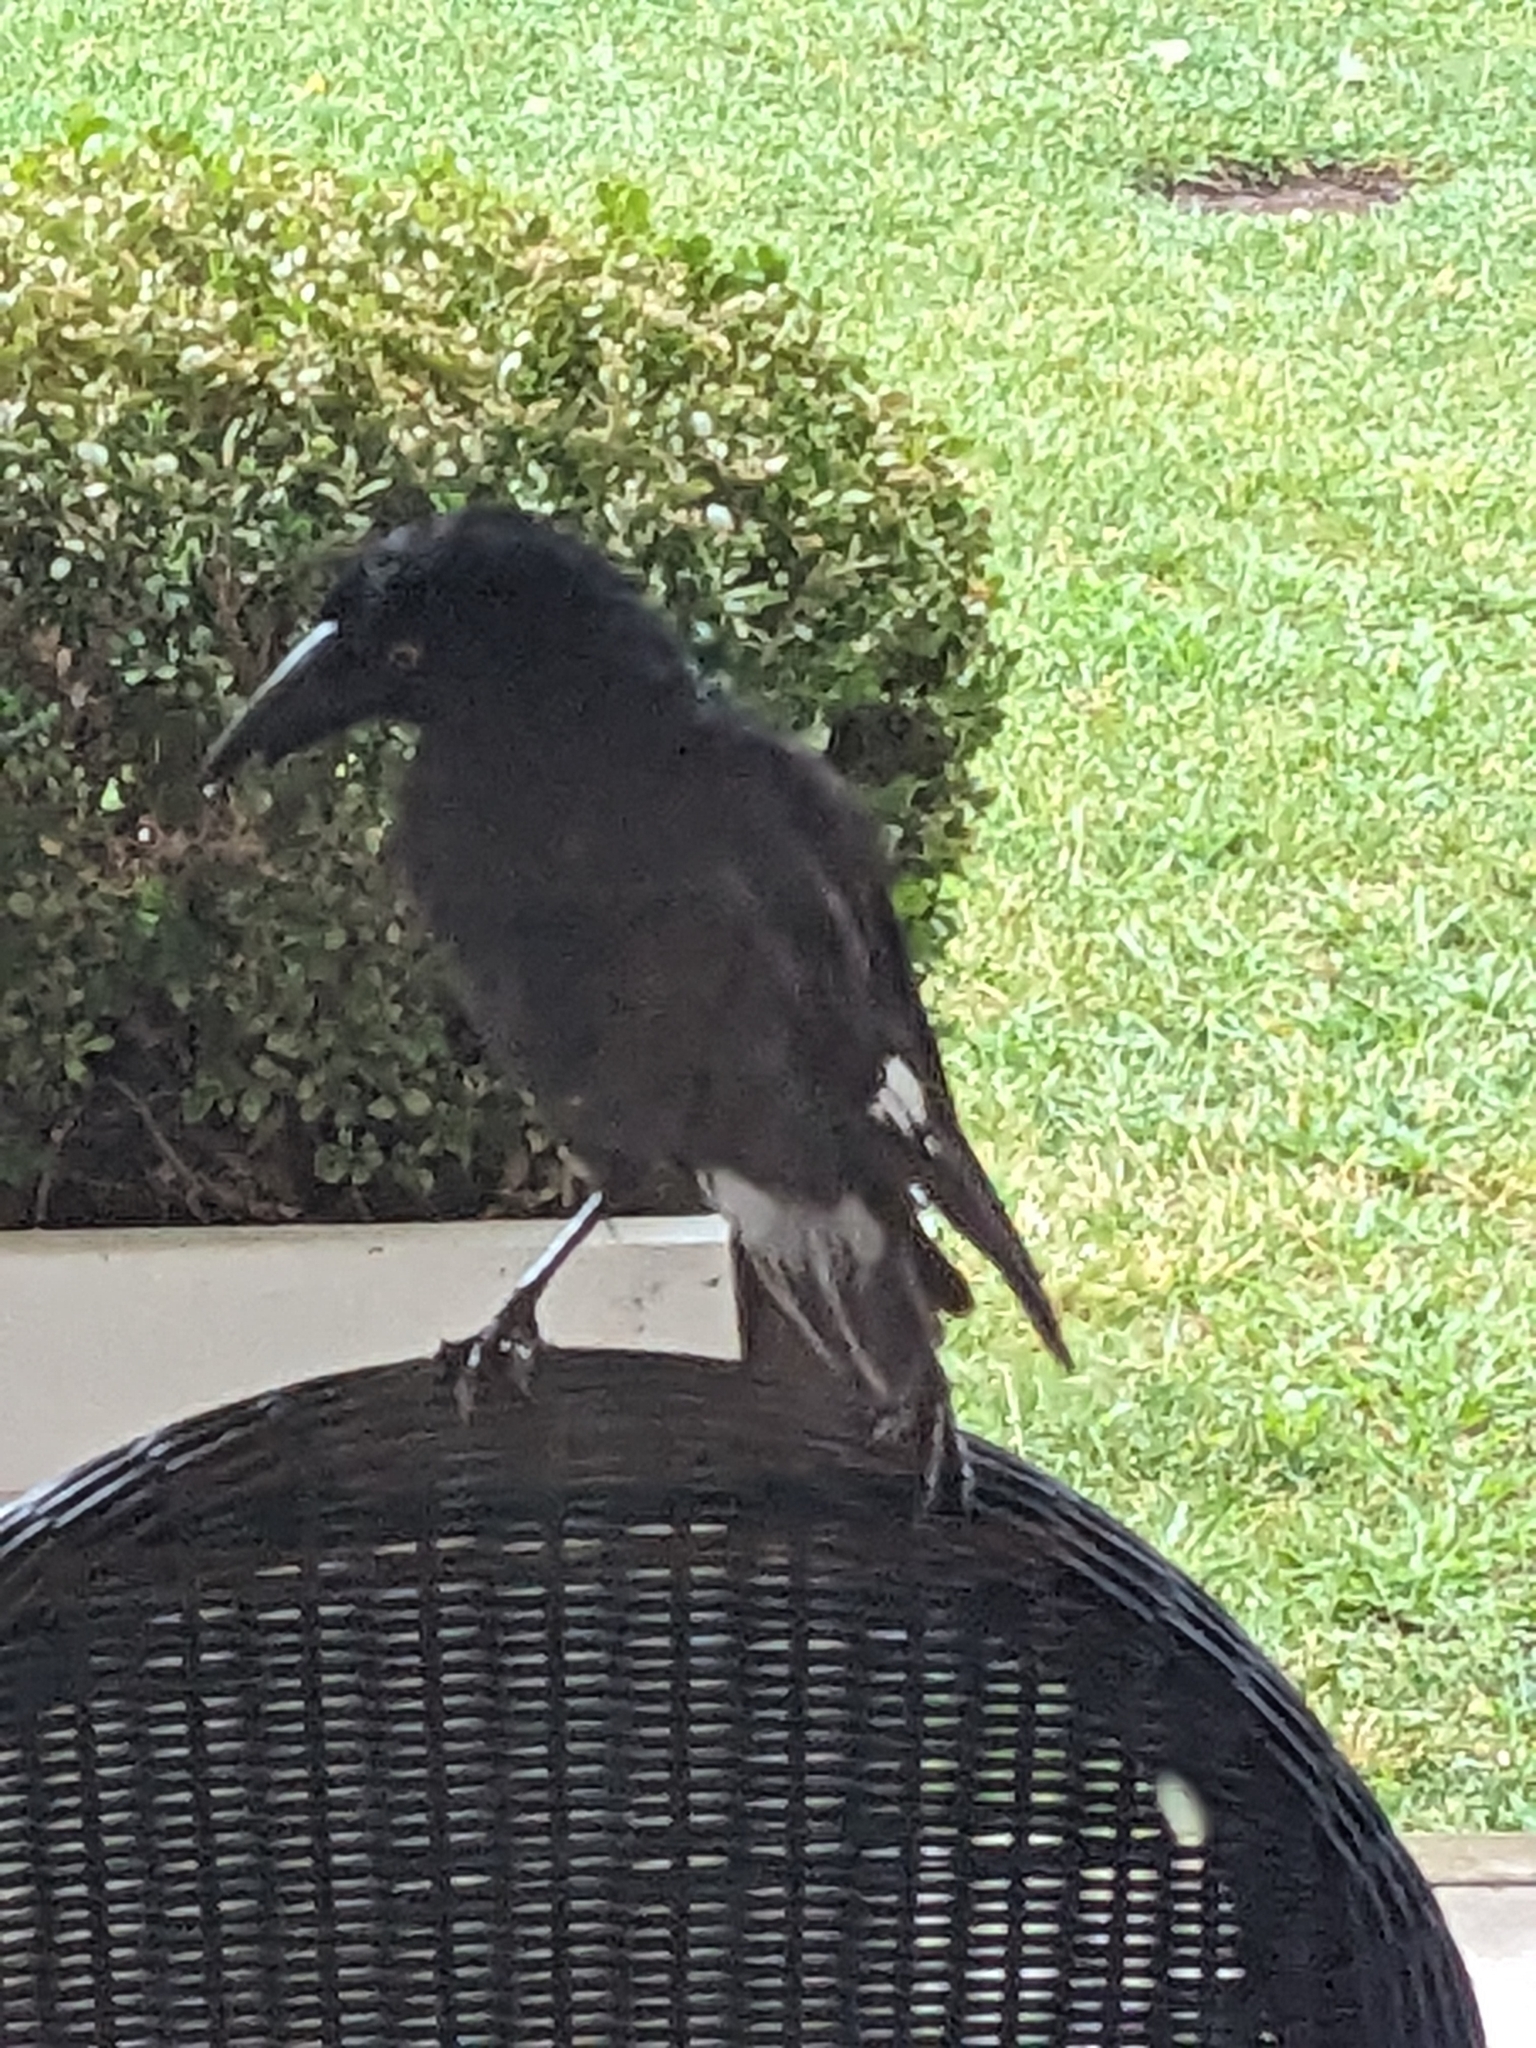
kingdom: Animalia
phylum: Chordata
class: Aves
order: Passeriformes
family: Cracticidae
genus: Strepera
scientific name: Strepera graculina
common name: Pied currawong
